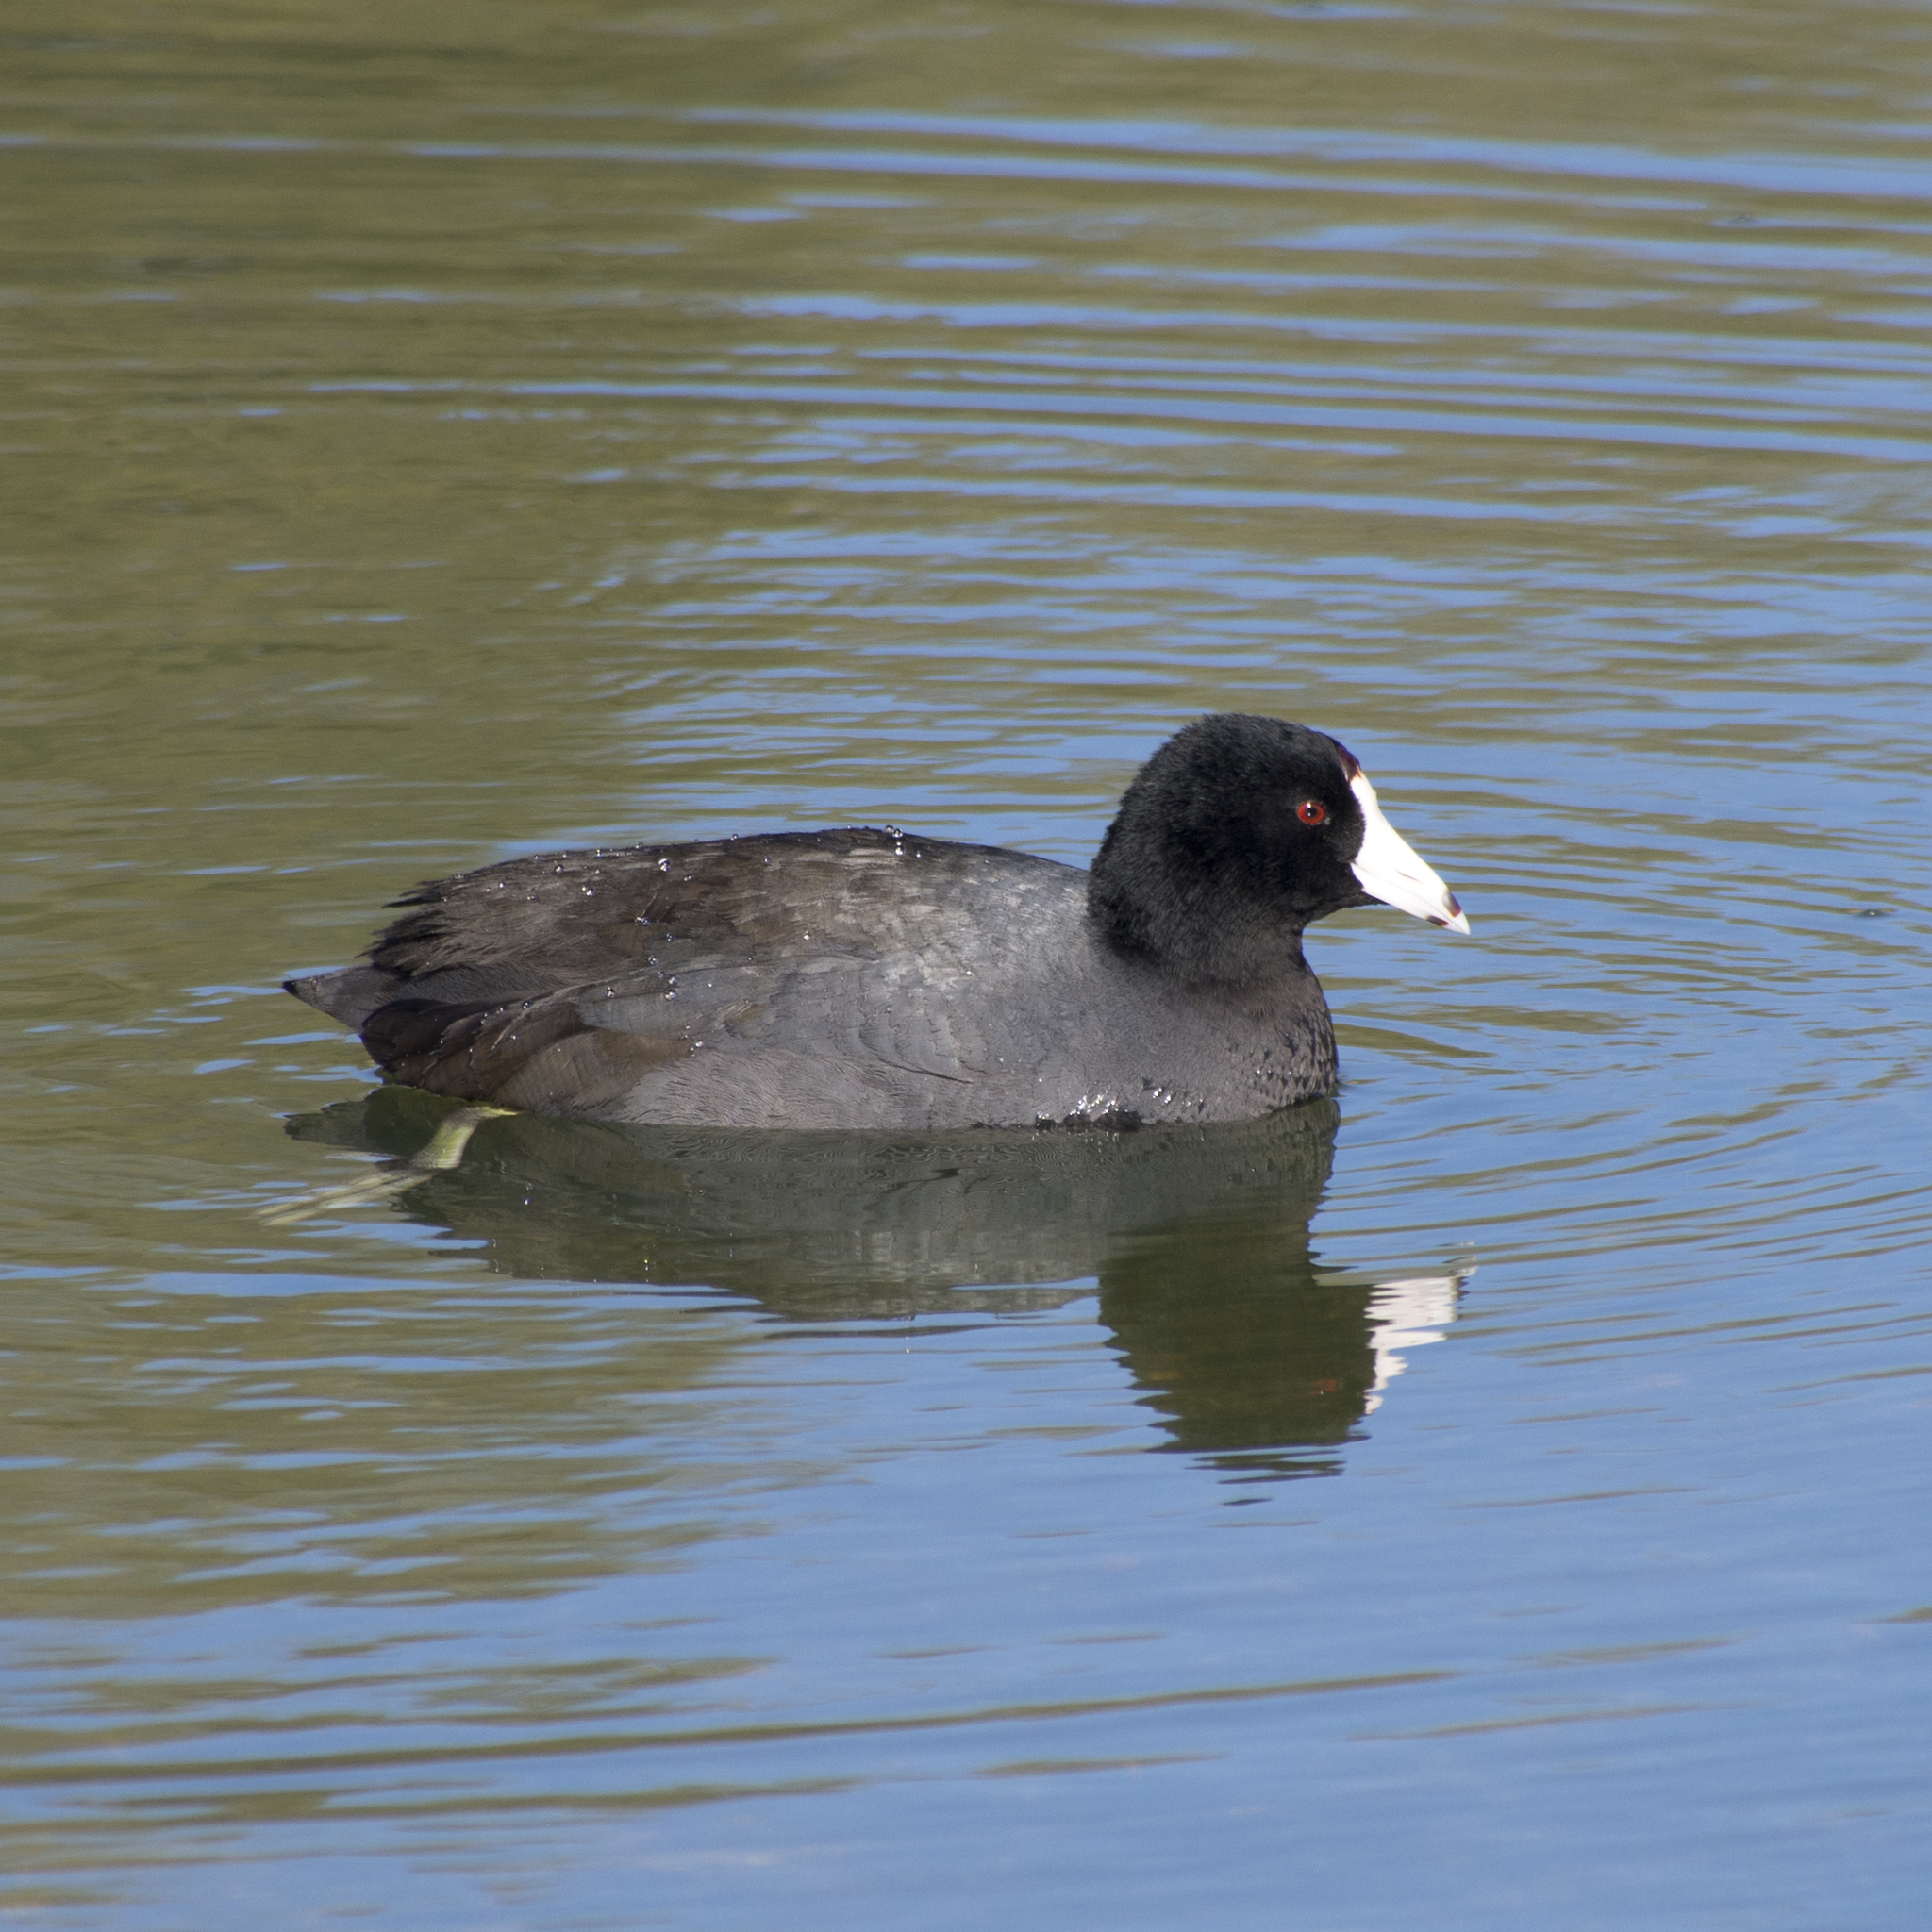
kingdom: Animalia
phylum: Chordata
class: Aves
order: Gruiformes
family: Rallidae
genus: Fulica
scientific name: Fulica americana
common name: American coot
